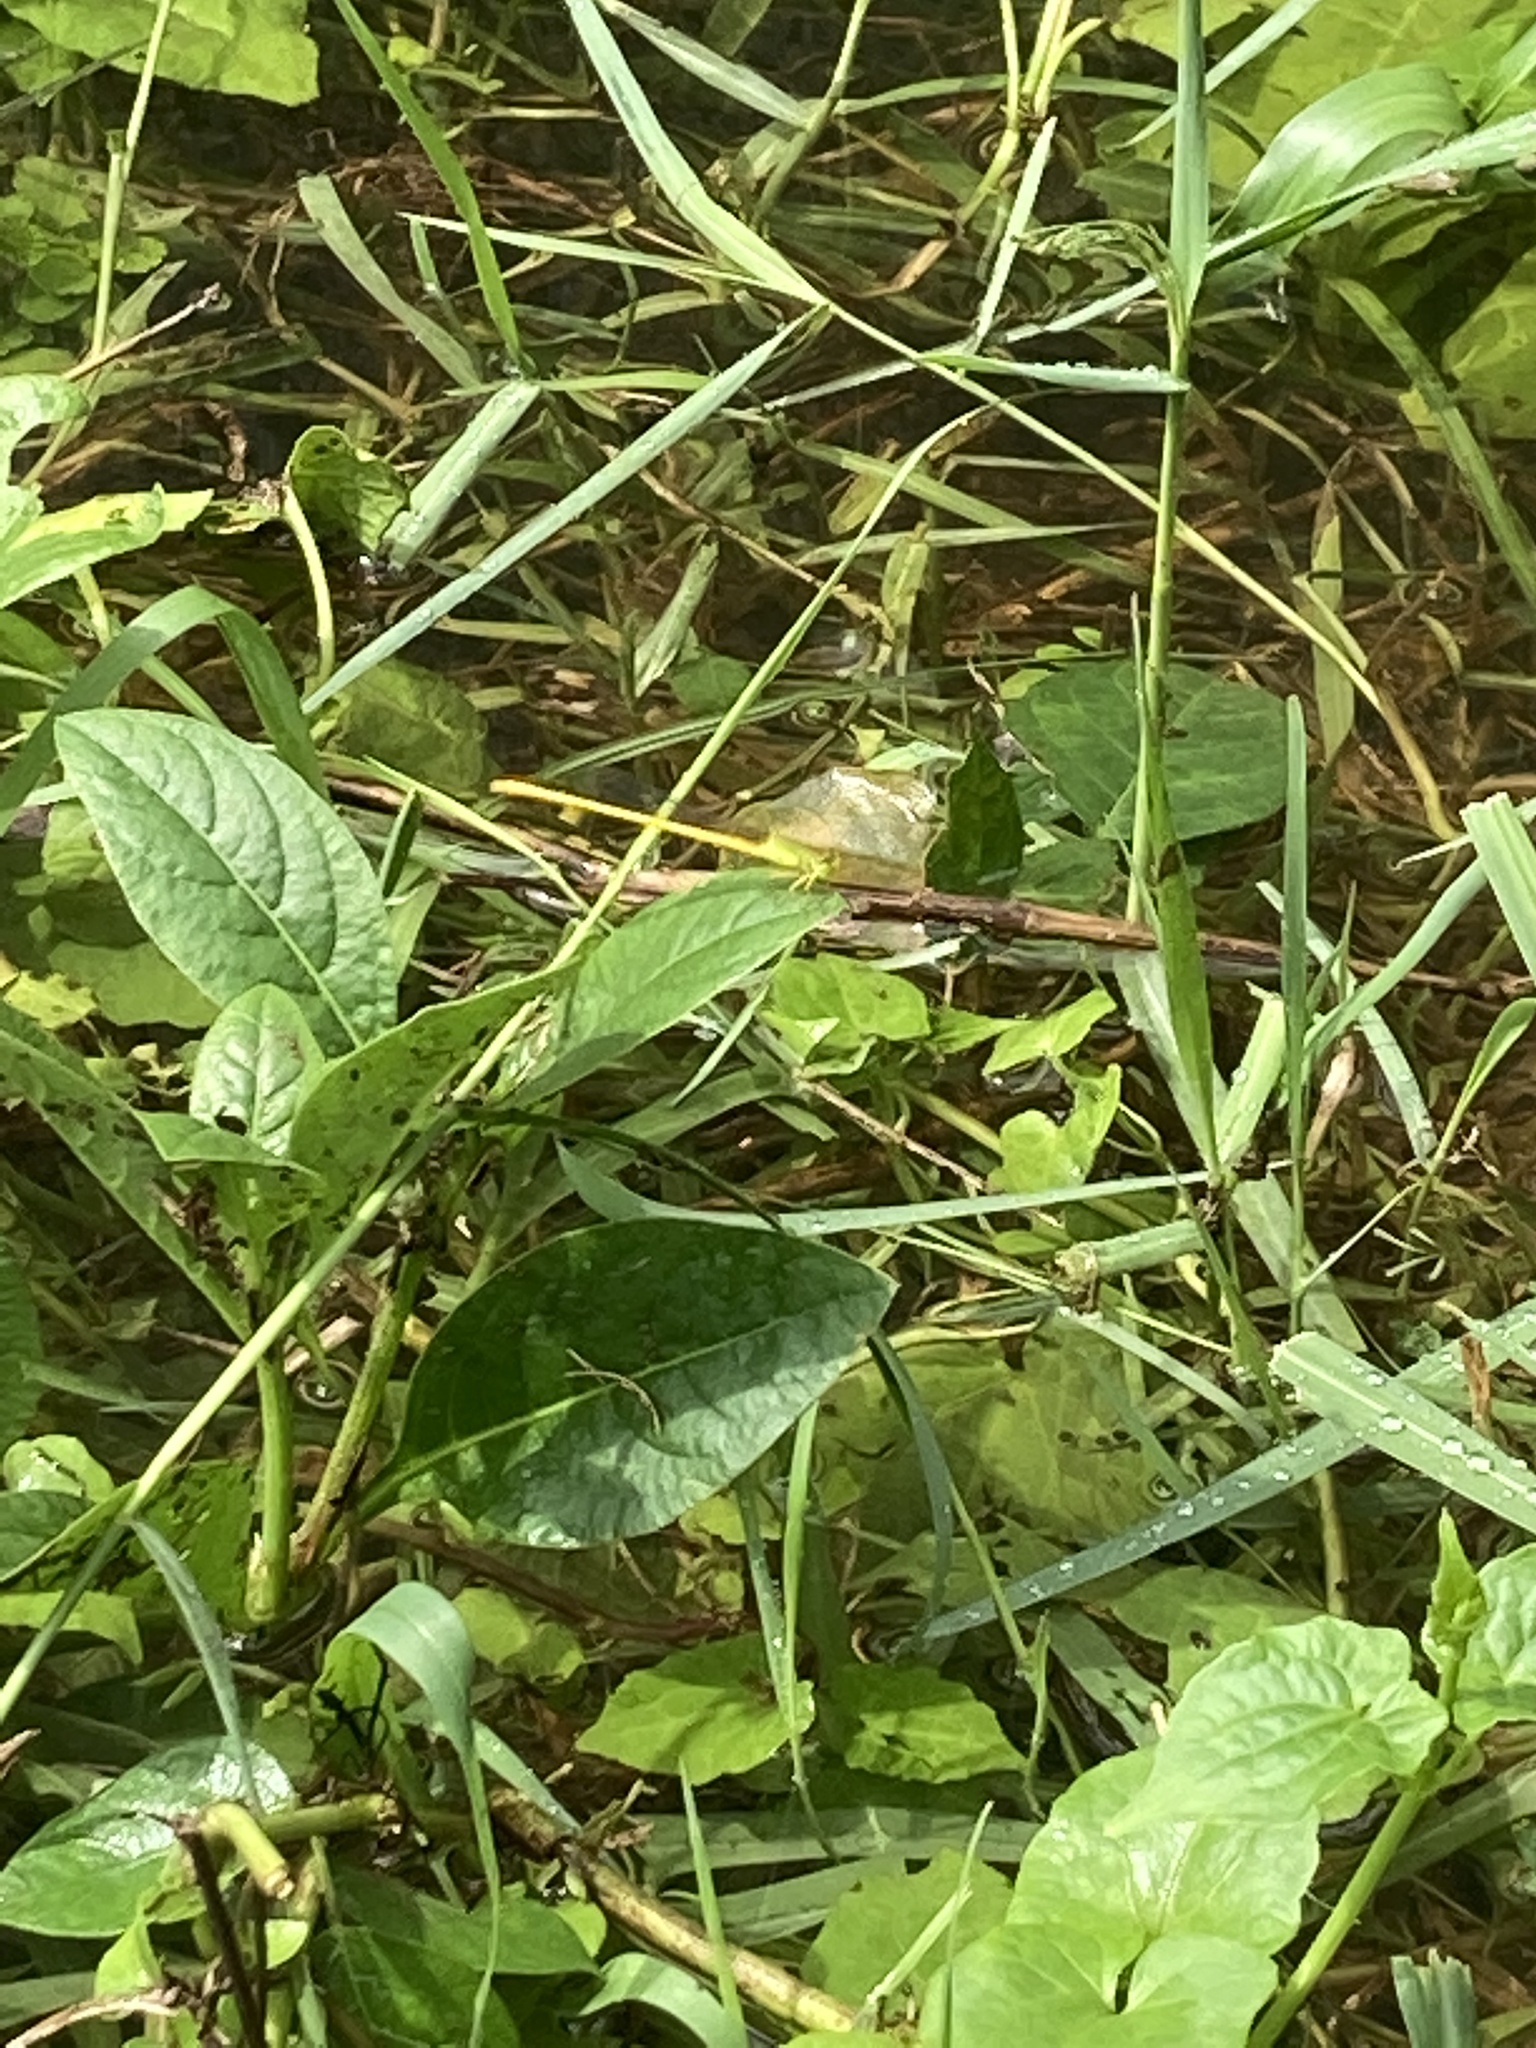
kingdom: Animalia
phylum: Arthropoda
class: Insecta
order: Odonata
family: Coenagrionidae
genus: Ceriagrion
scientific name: Ceriagrion coromandelianum
